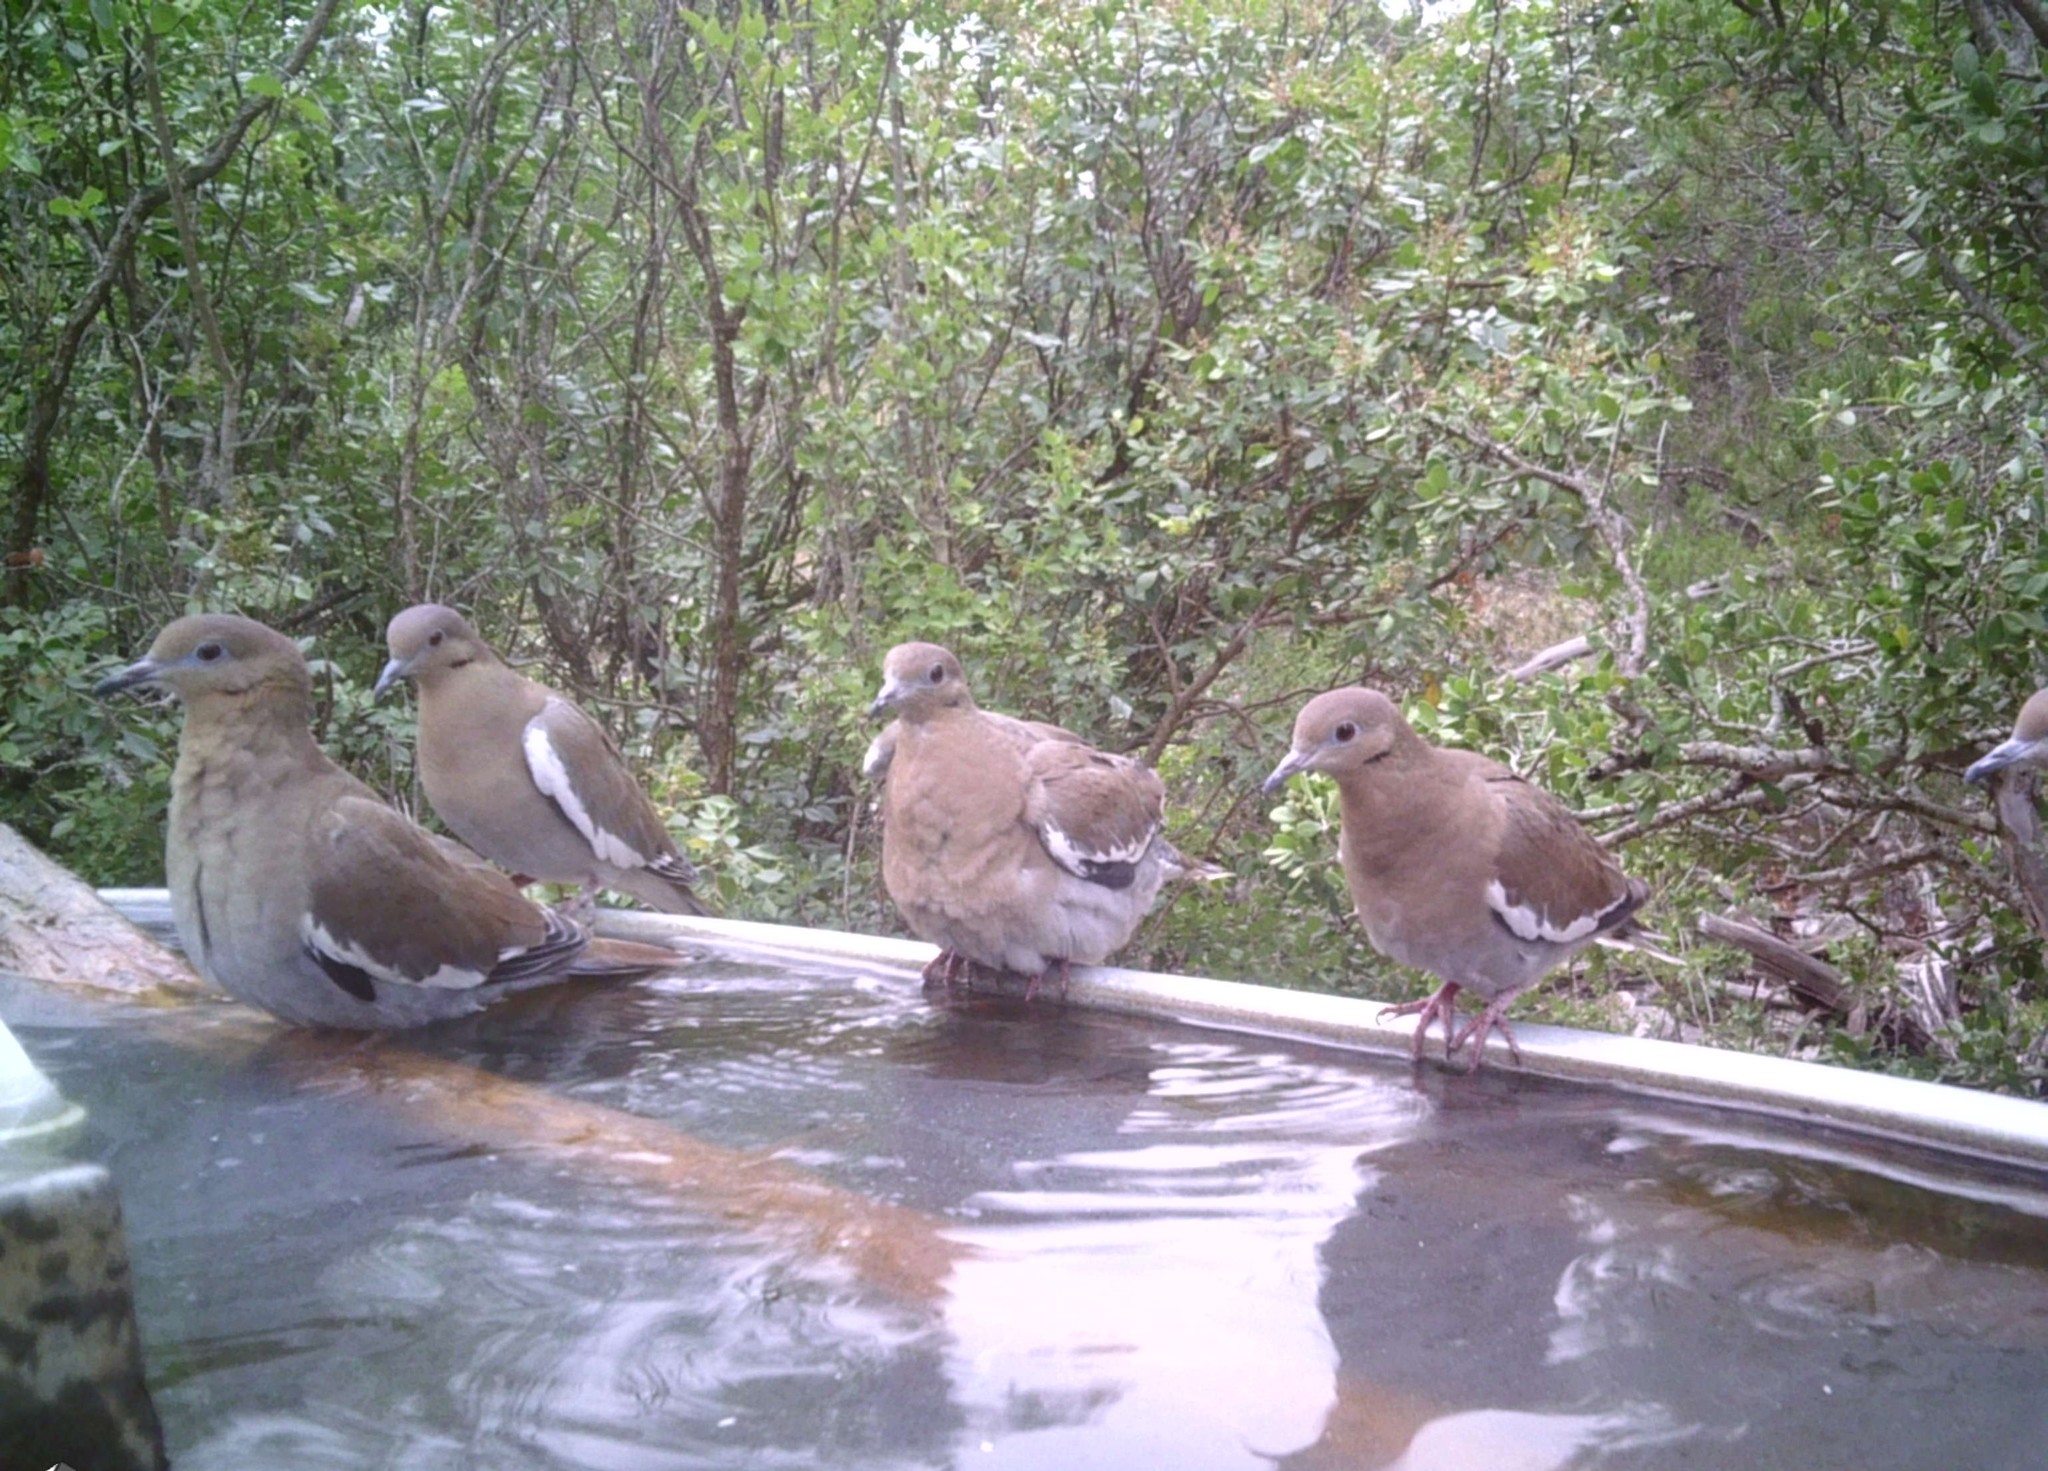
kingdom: Animalia
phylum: Chordata
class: Aves
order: Columbiformes
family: Columbidae
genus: Zenaida
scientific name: Zenaida asiatica
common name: White-winged dove
